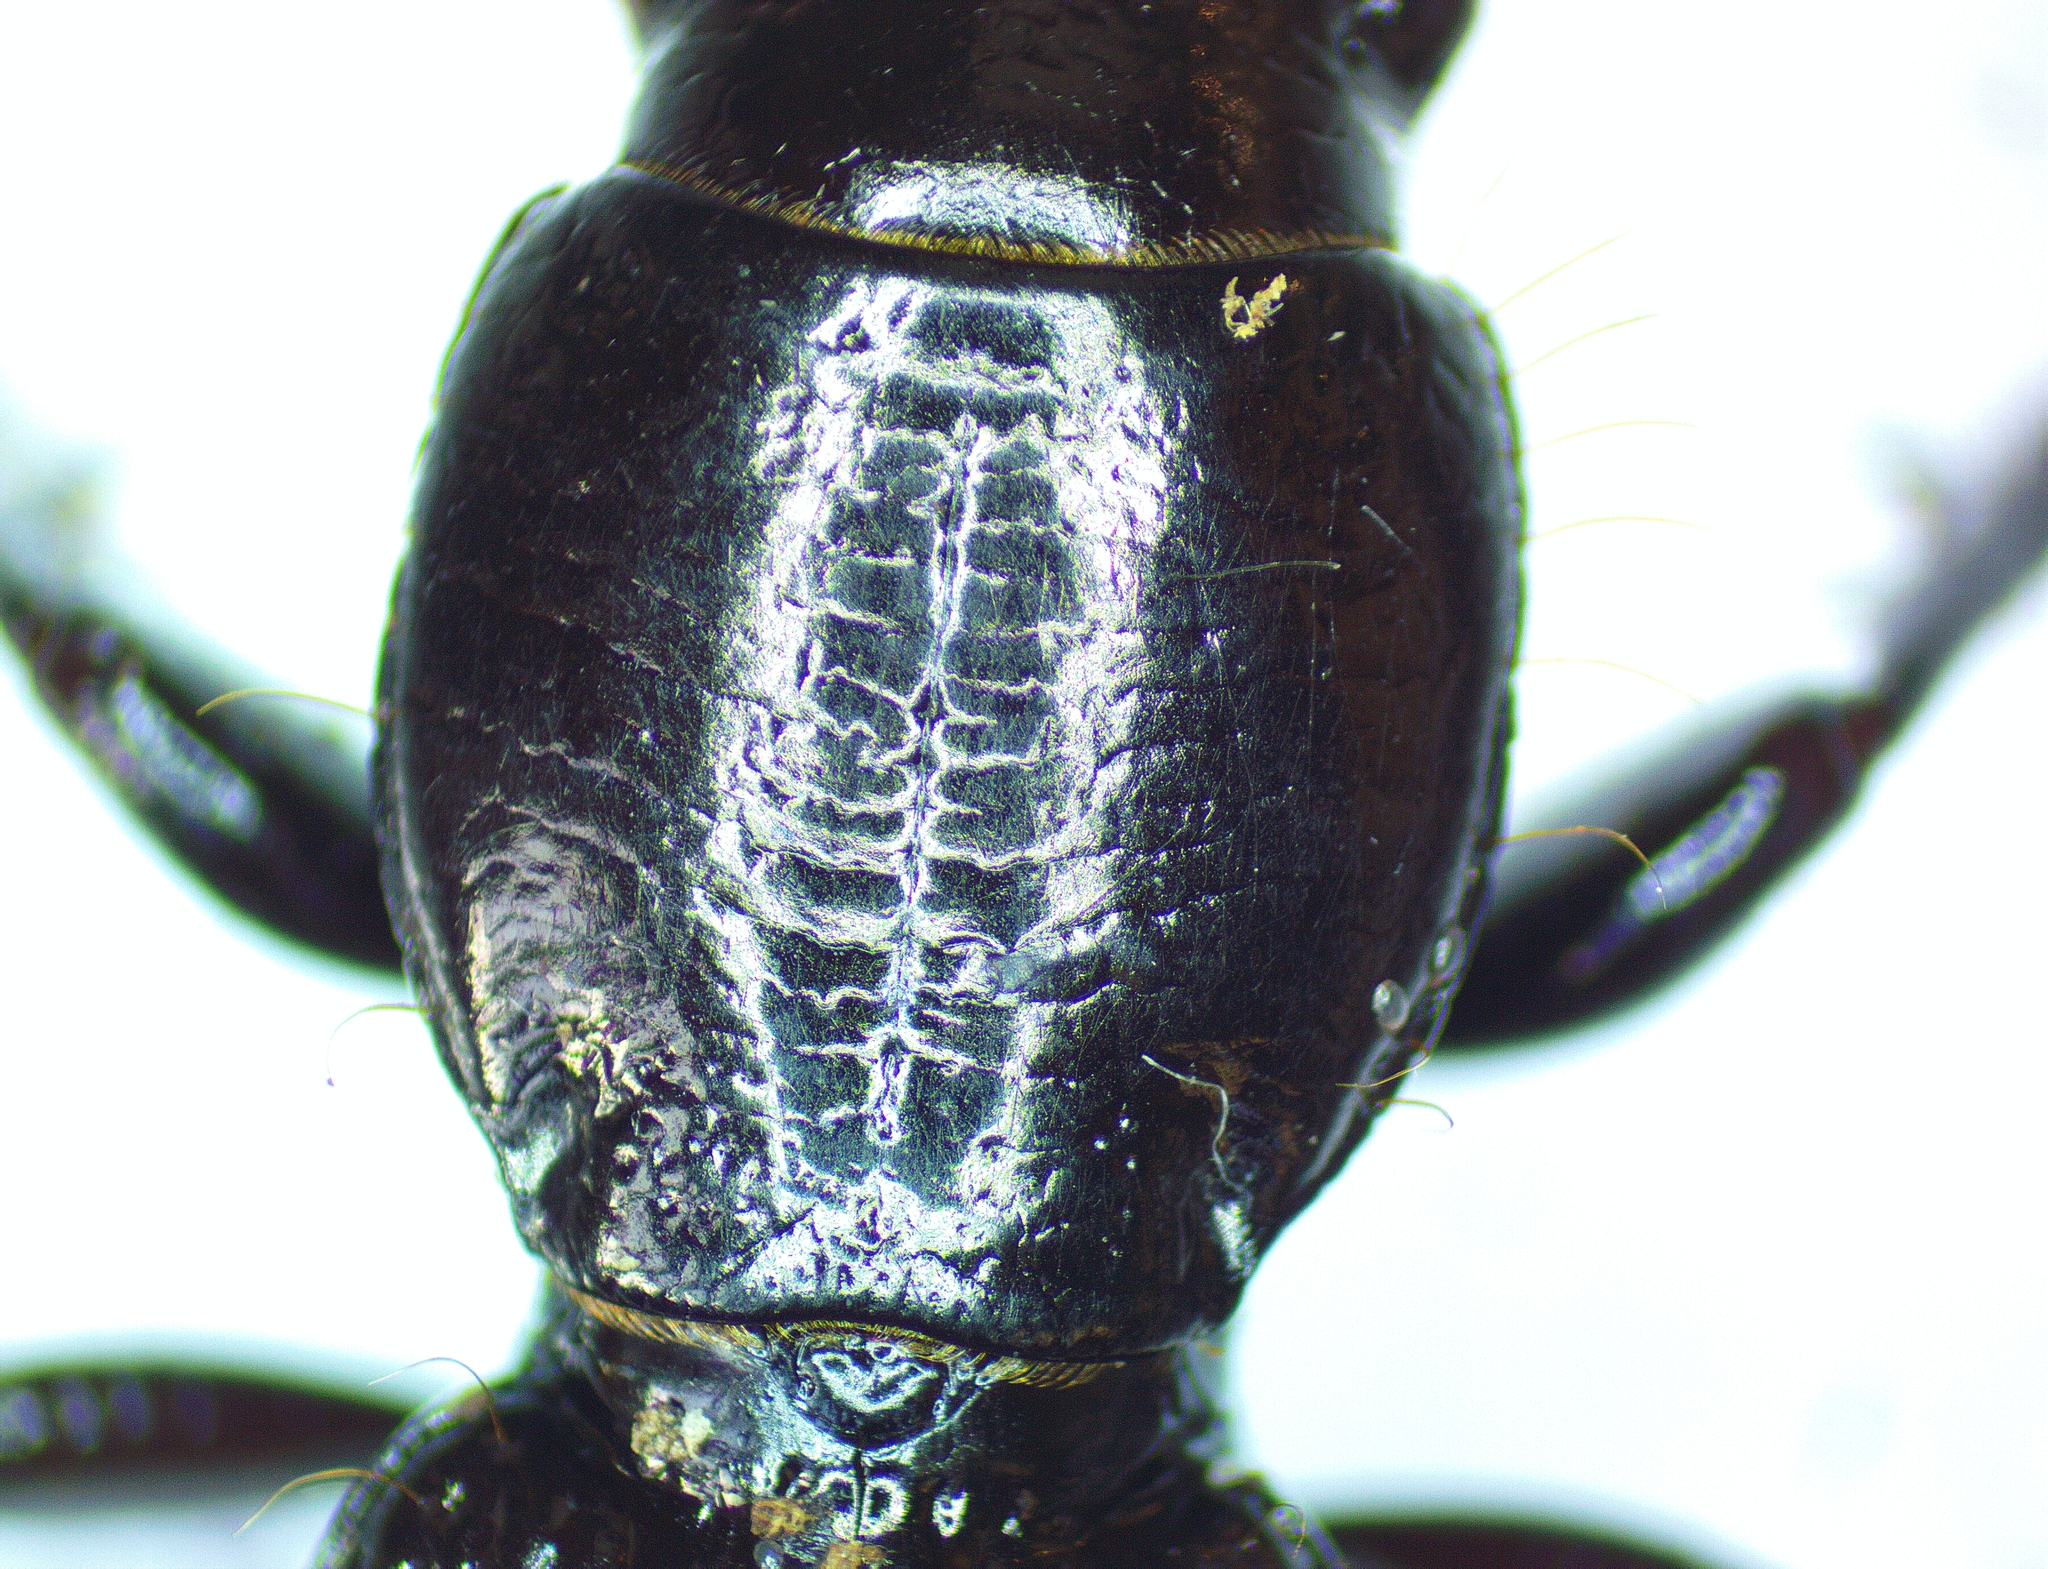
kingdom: Animalia
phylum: Arthropoda
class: Insecta
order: Coleoptera
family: Carabidae
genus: Mecodema
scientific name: Mecodema strictum
